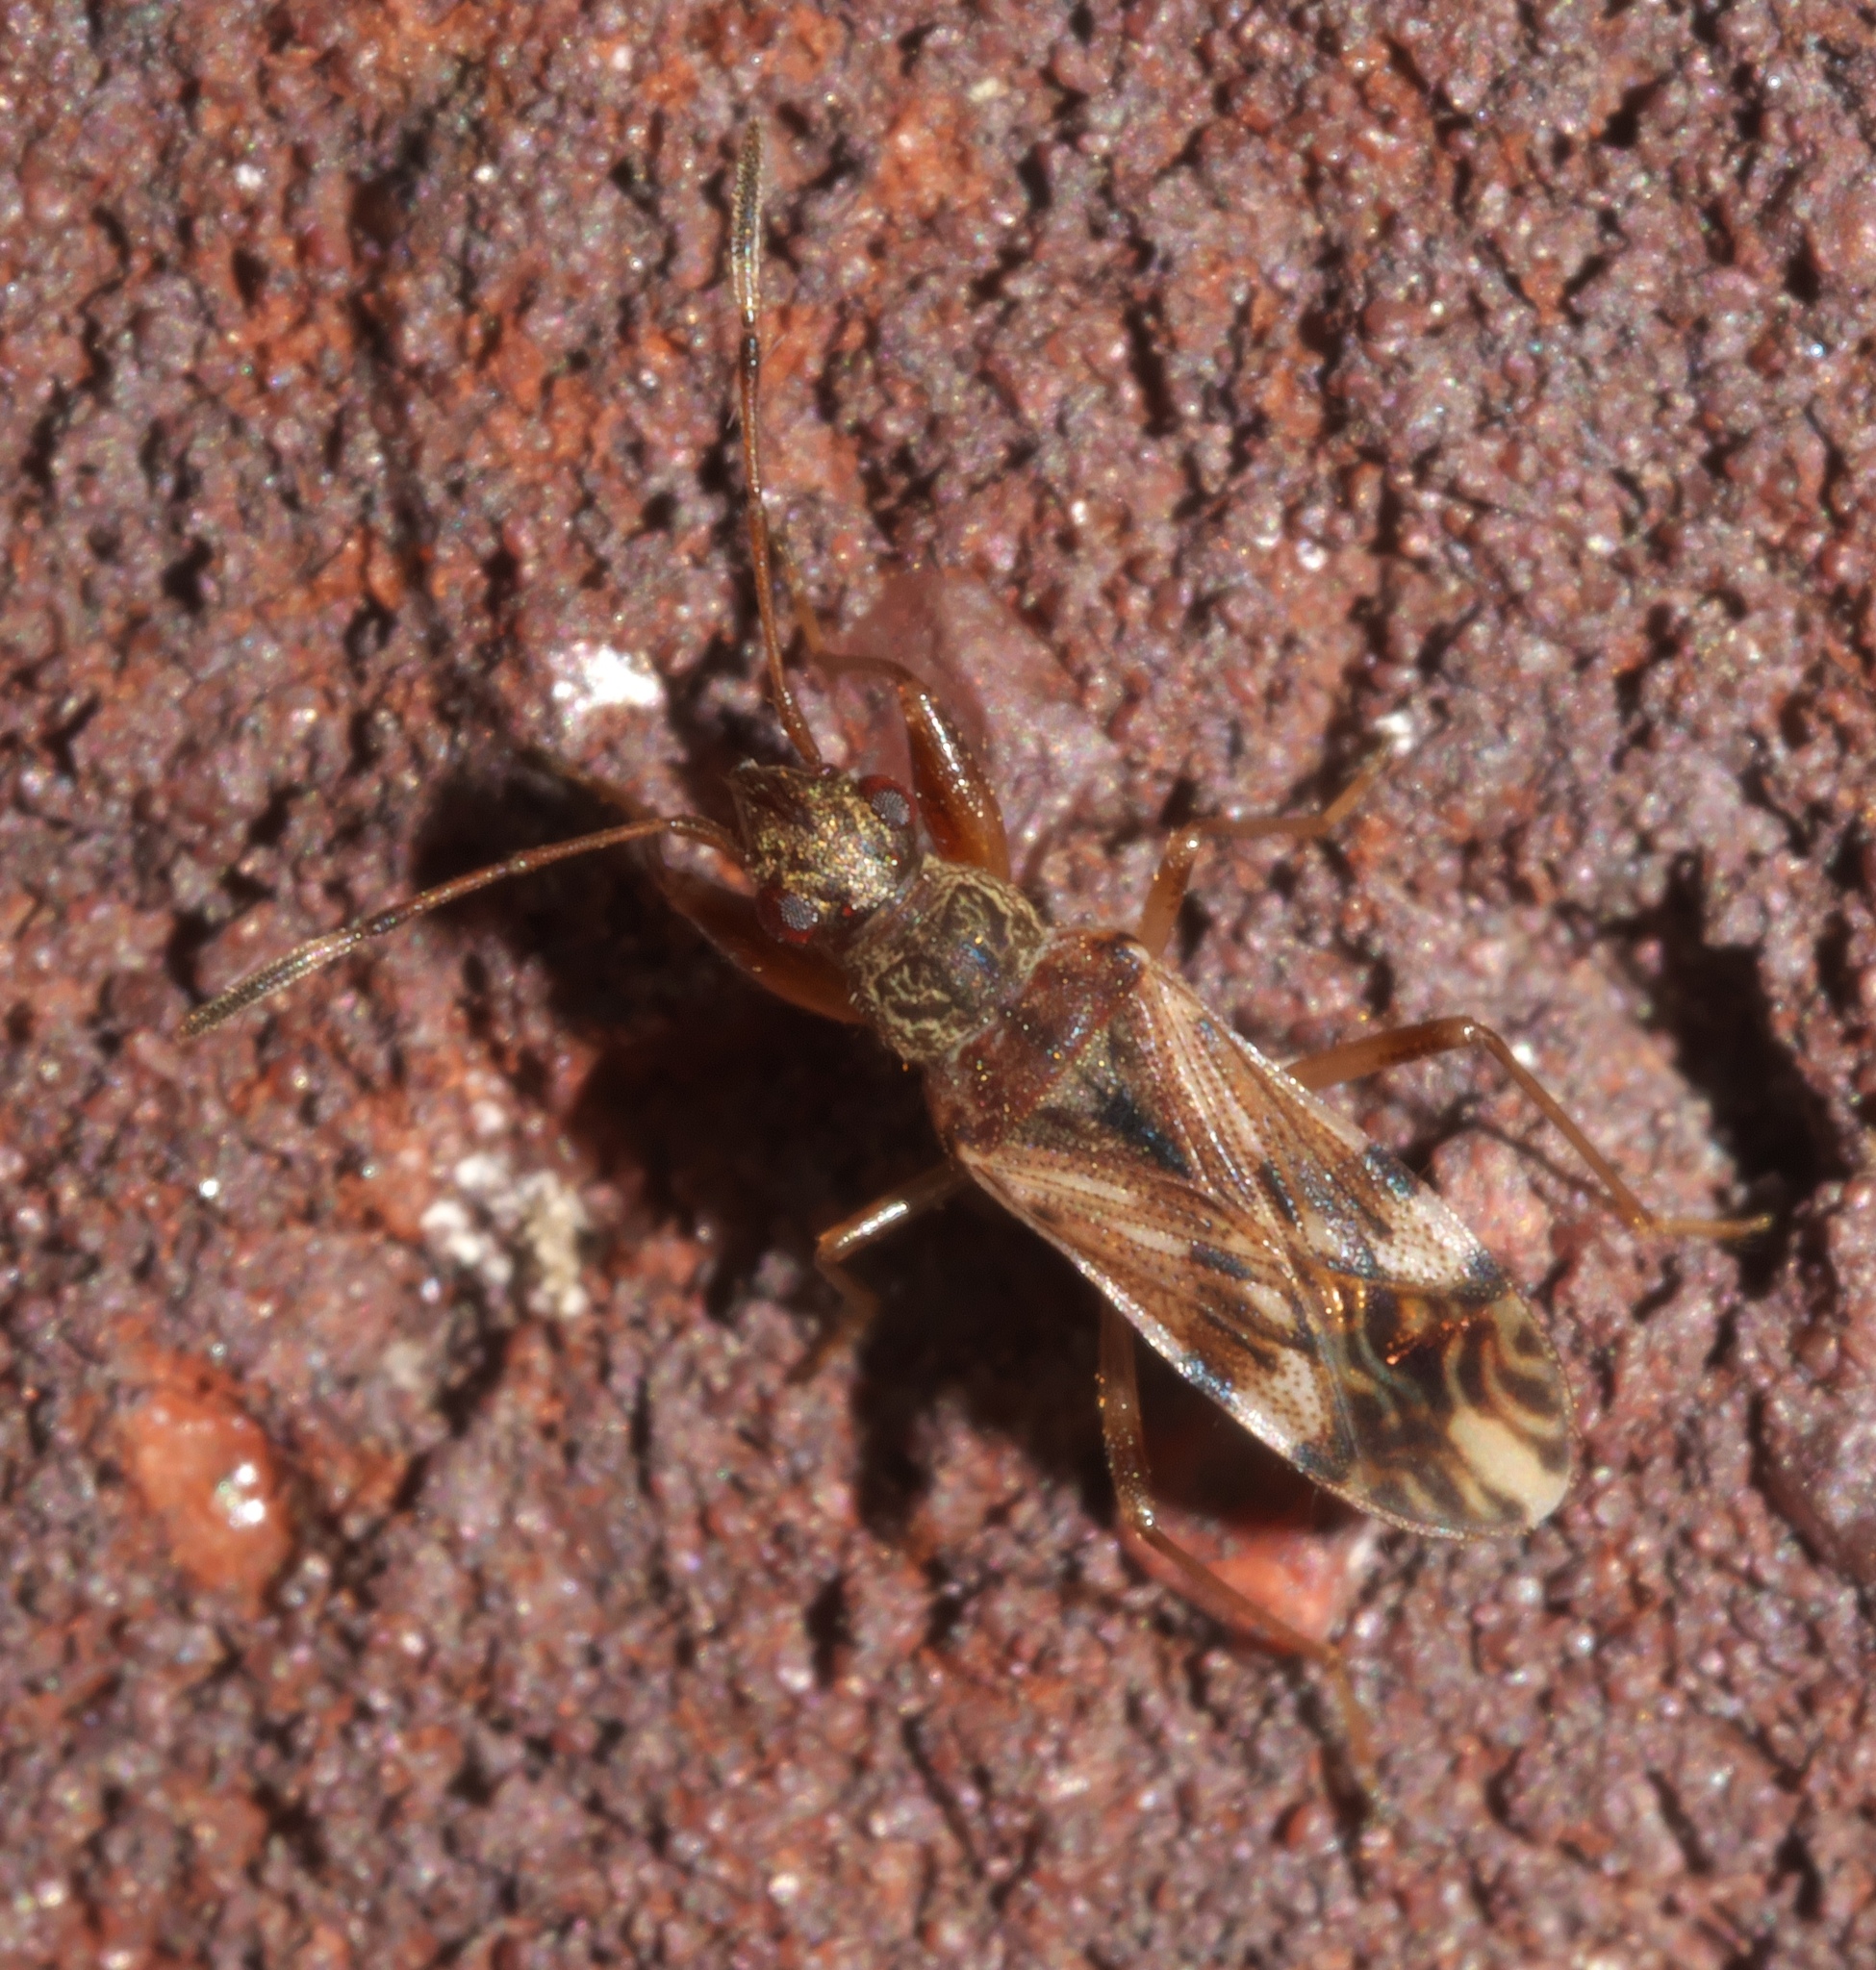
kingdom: Animalia
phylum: Arthropoda
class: Insecta
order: Hemiptera
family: Rhyparochromidae
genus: Neopamera
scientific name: Neopamera albocincta
